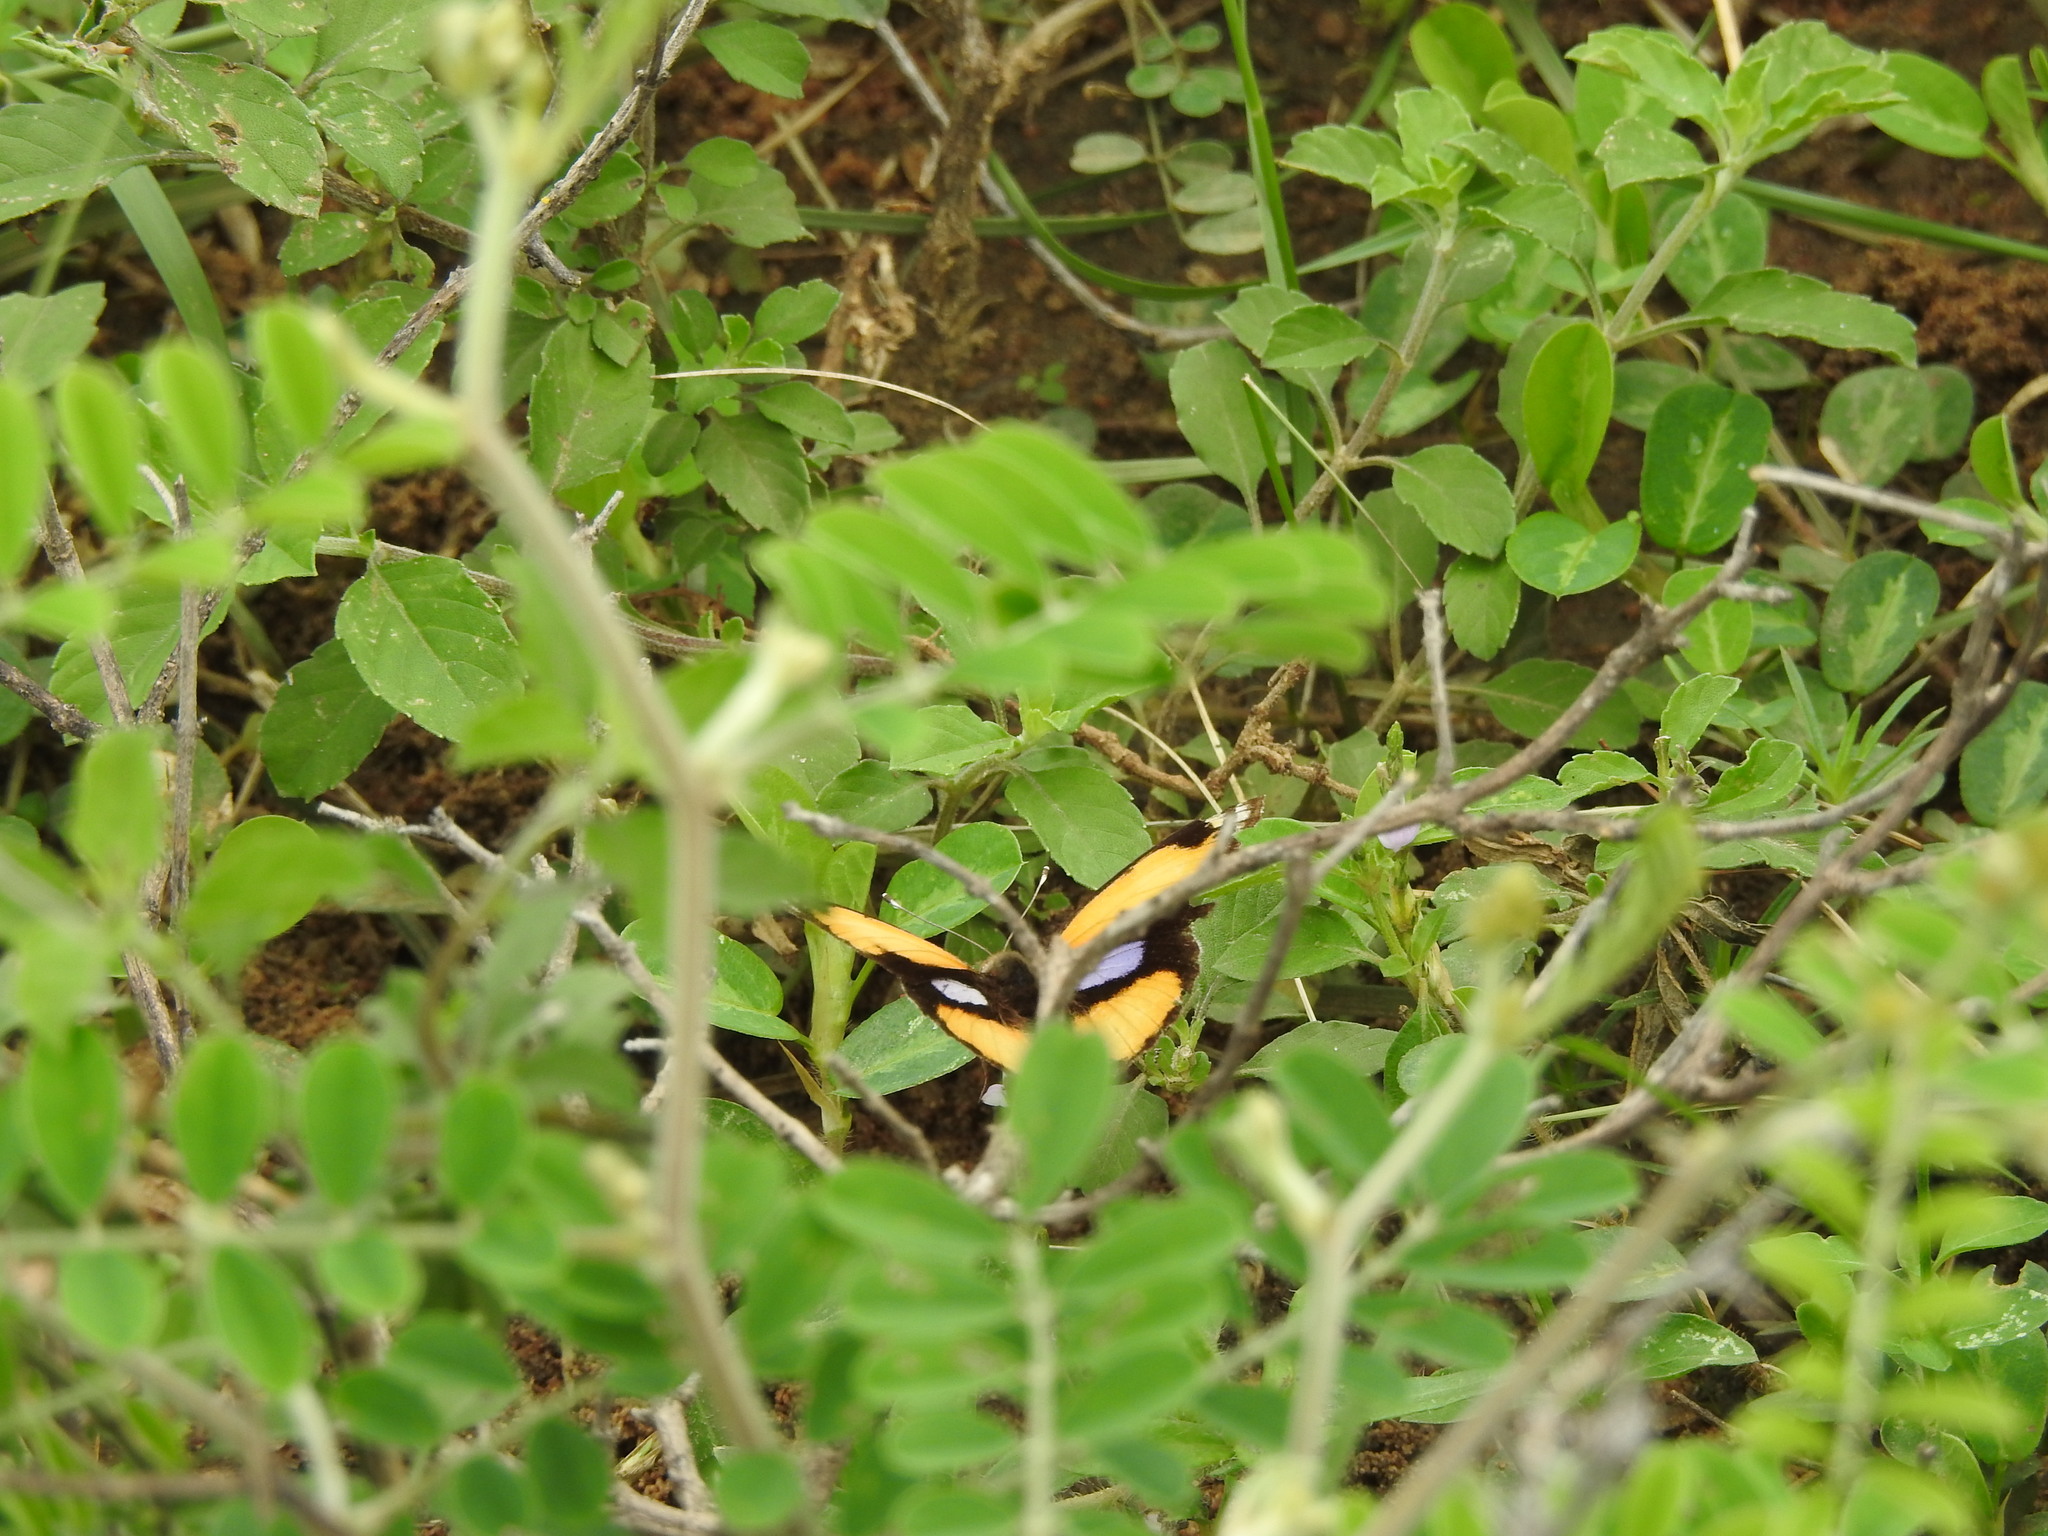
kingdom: Animalia
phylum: Arthropoda
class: Insecta
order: Lepidoptera
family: Nymphalidae
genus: Junonia
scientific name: Junonia hierta
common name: Yellow pansy
